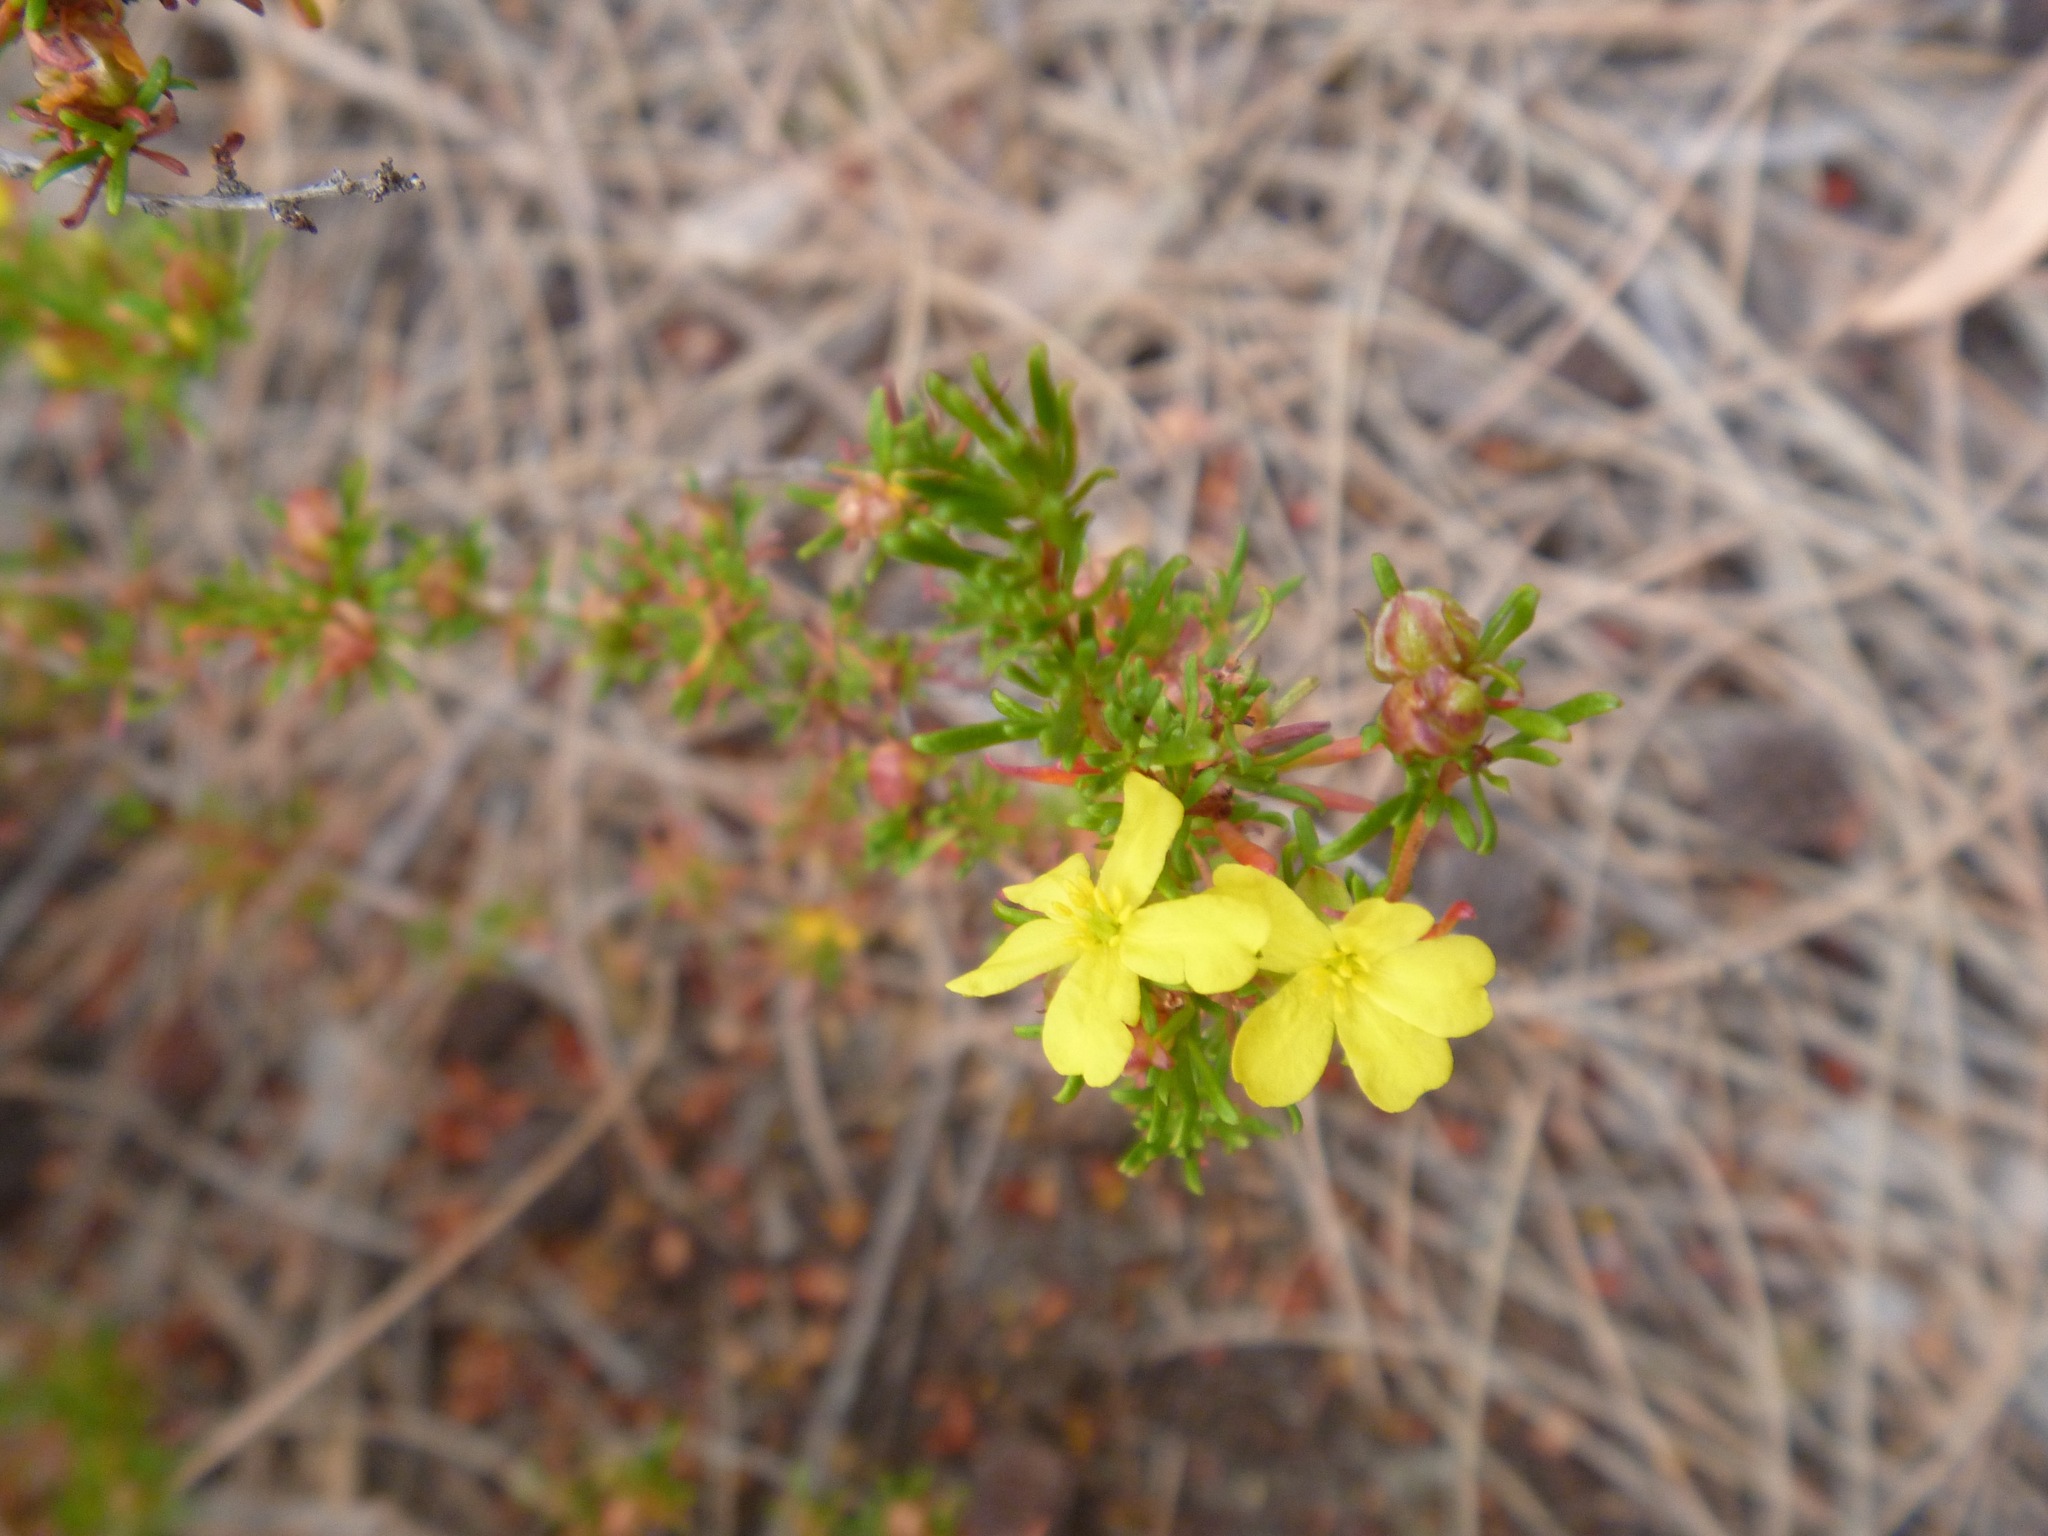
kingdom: Plantae
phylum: Tracheophyta
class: Magnoliopsida
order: Dilleniales
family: Dilleniaceae
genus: Hibbertia
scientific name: Hibbertia
